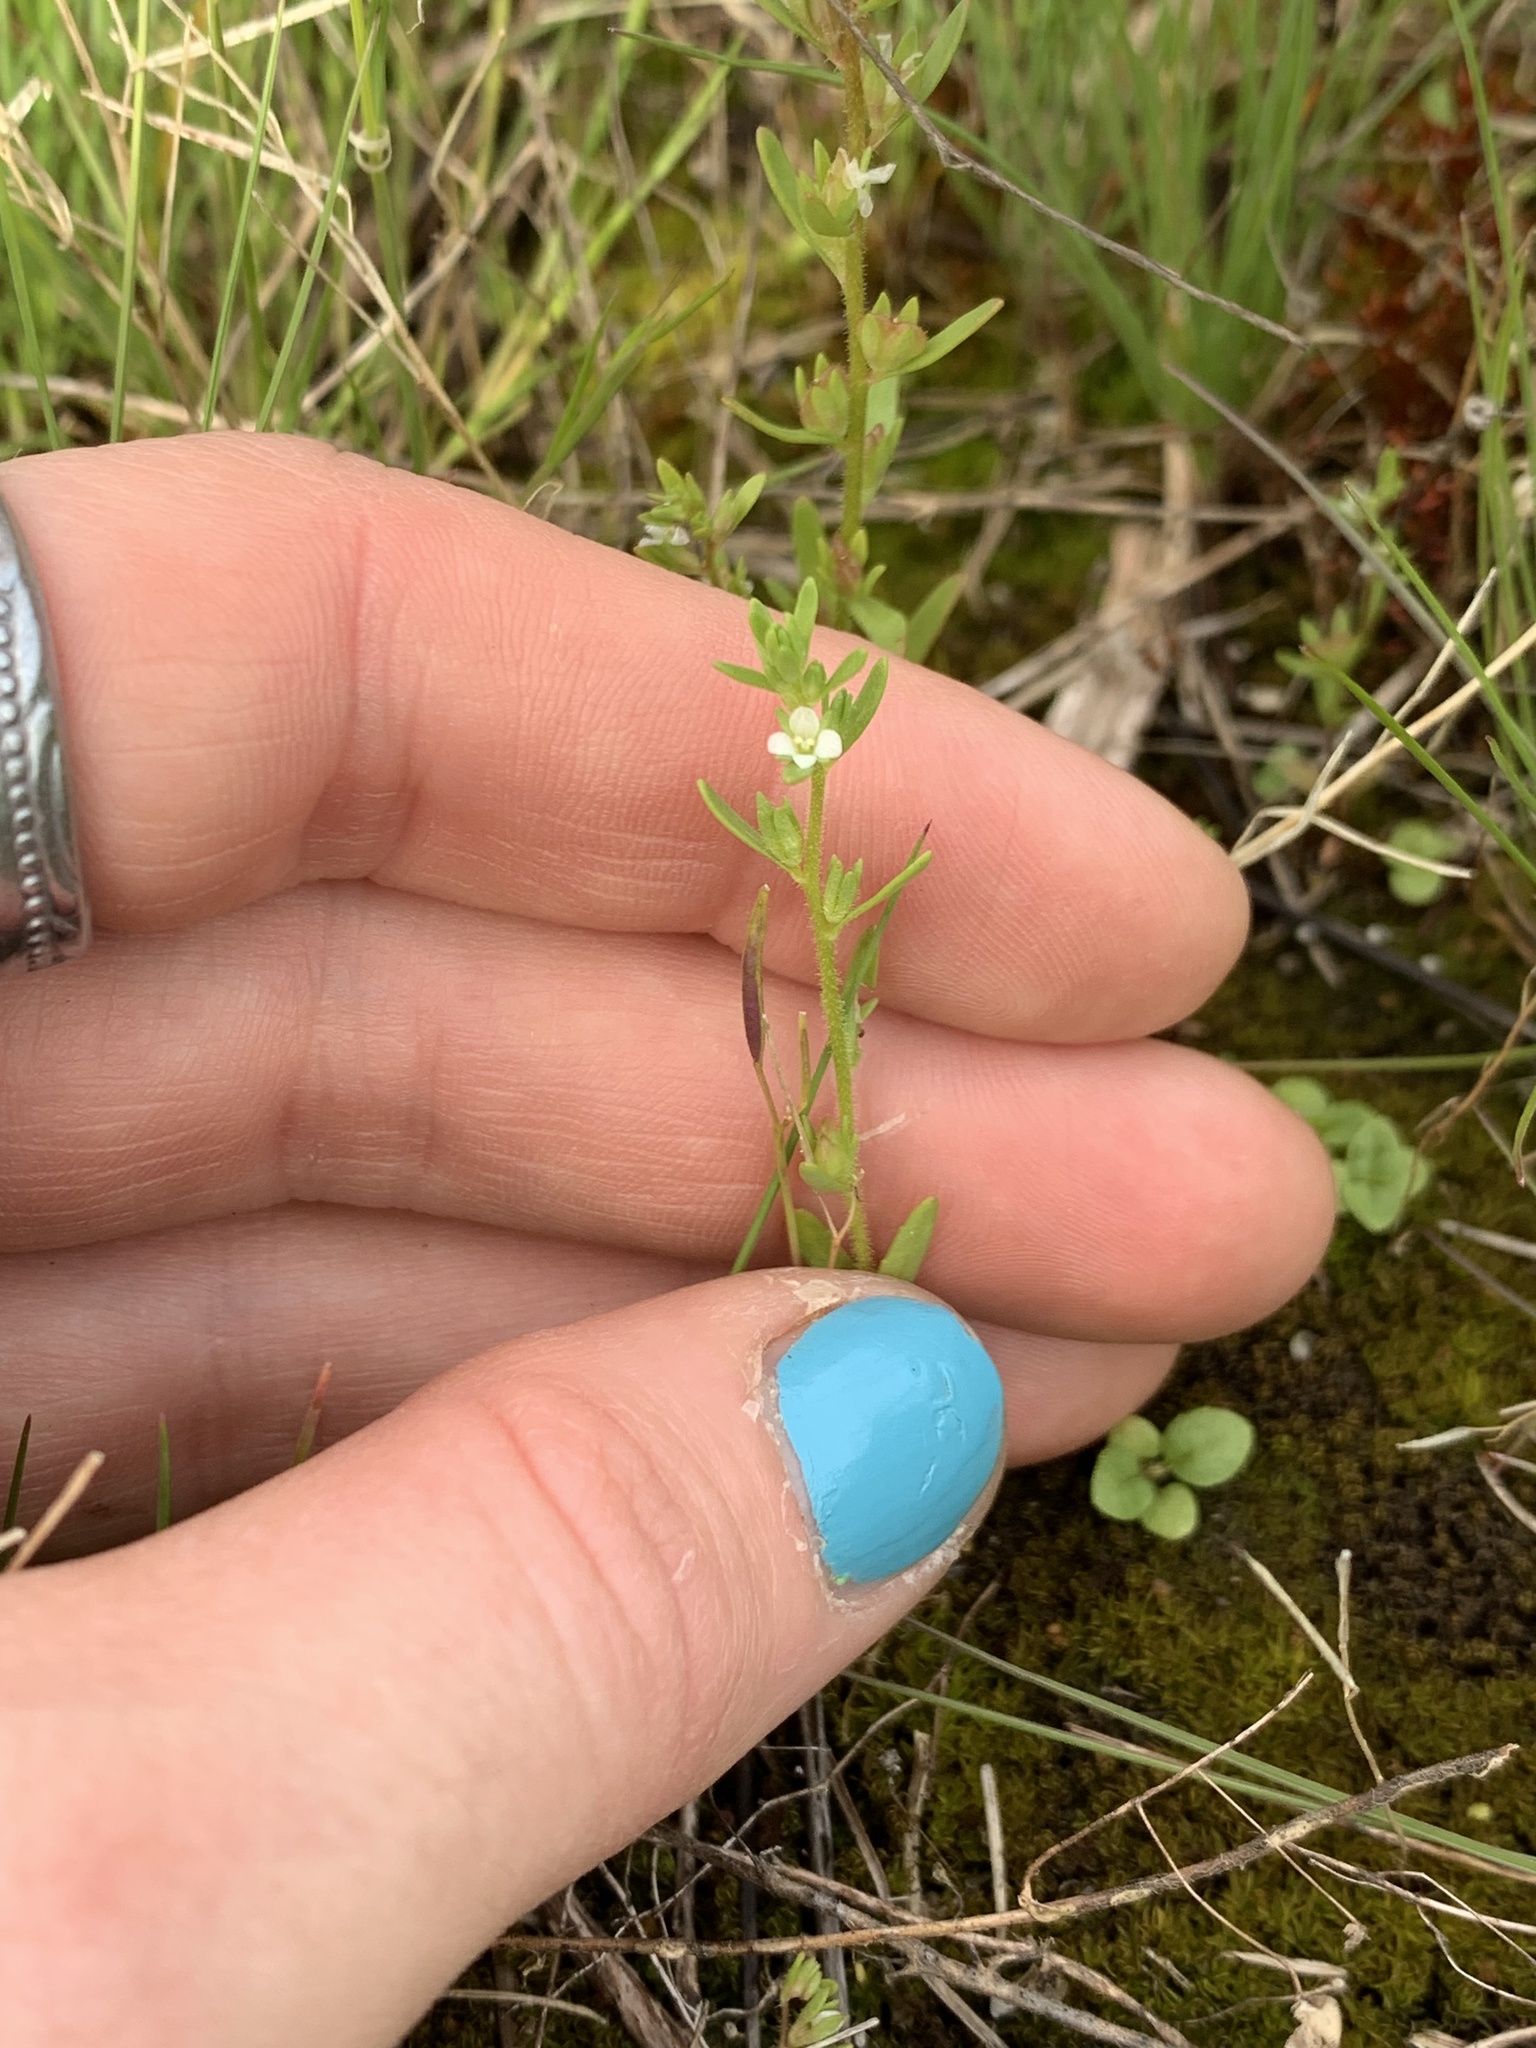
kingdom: Plantae
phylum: Tracheophyta
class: Magnoliopsida
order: Lamiales
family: Plantaginaceae
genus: Veronica
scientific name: Veronica peregrina
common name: Neckweed
